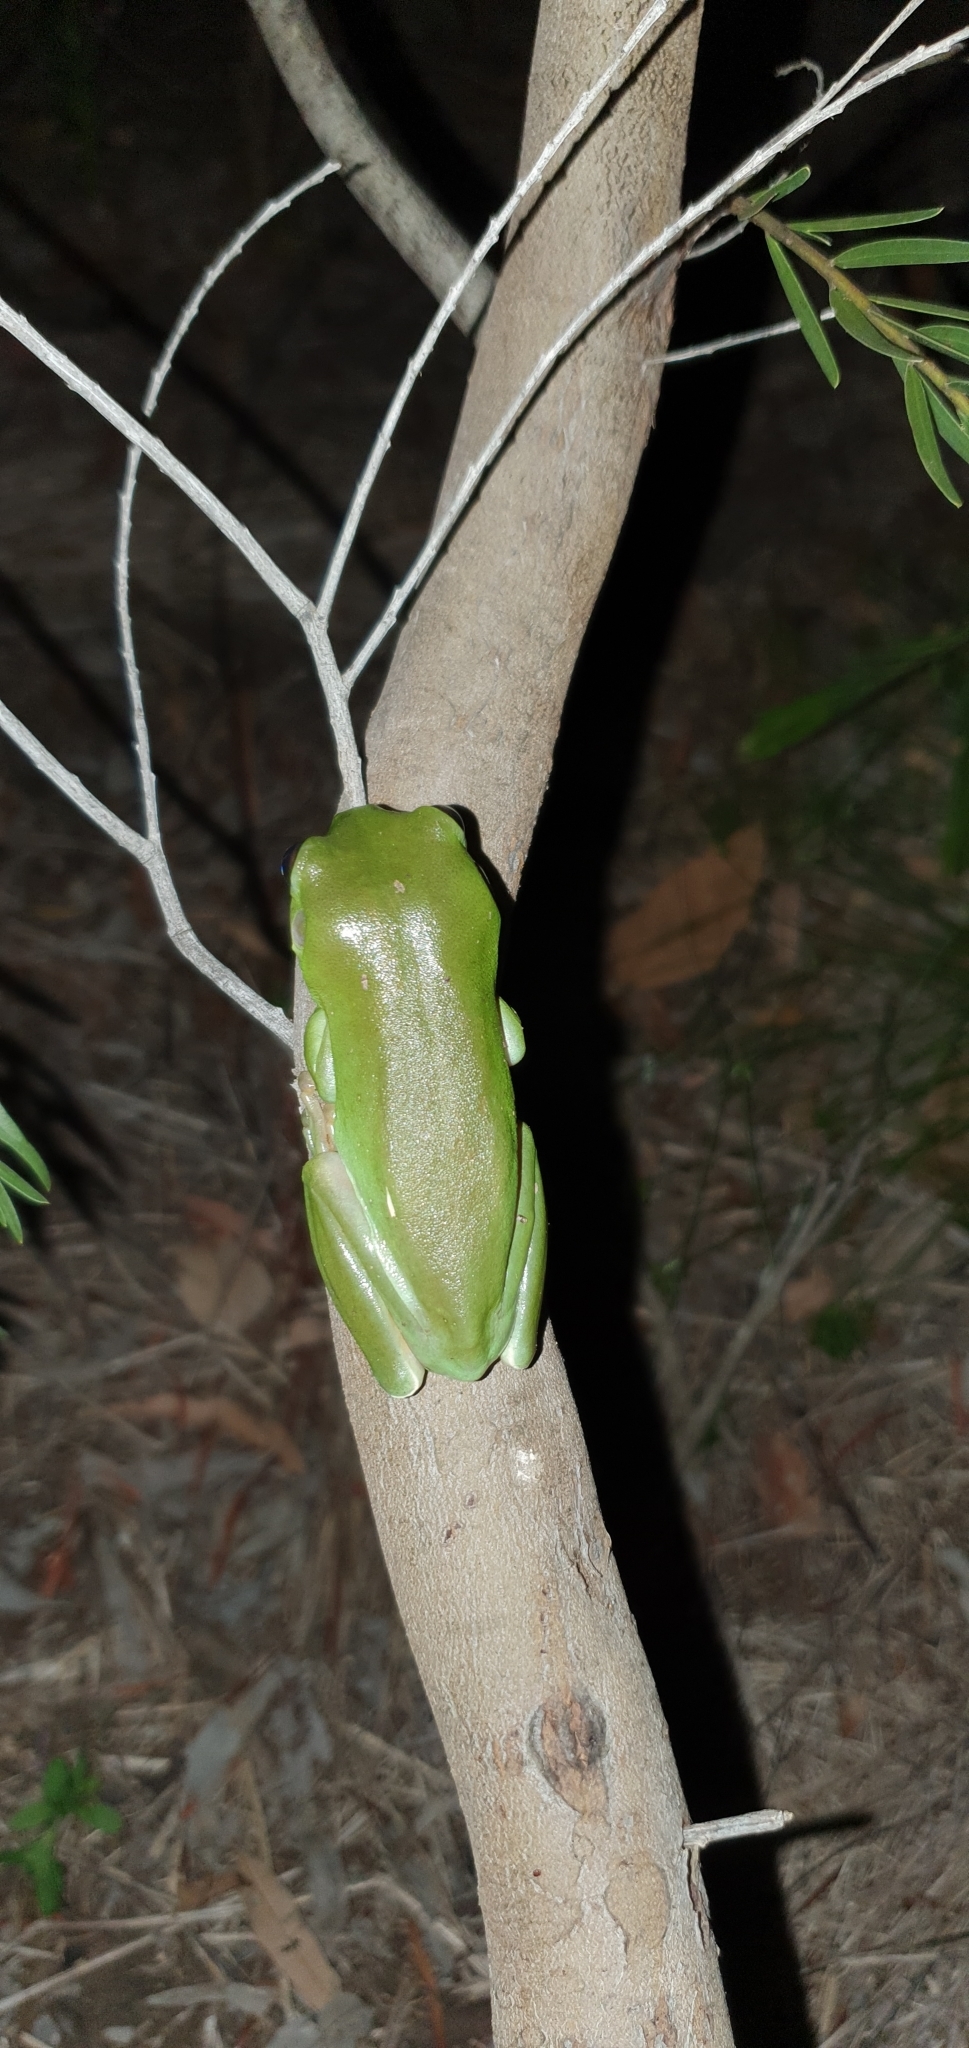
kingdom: Animalia
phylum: Chordata
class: Amphibia
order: Anura
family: Pelodryadidae
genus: Ranoidea
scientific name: Ranoidea caerulea
